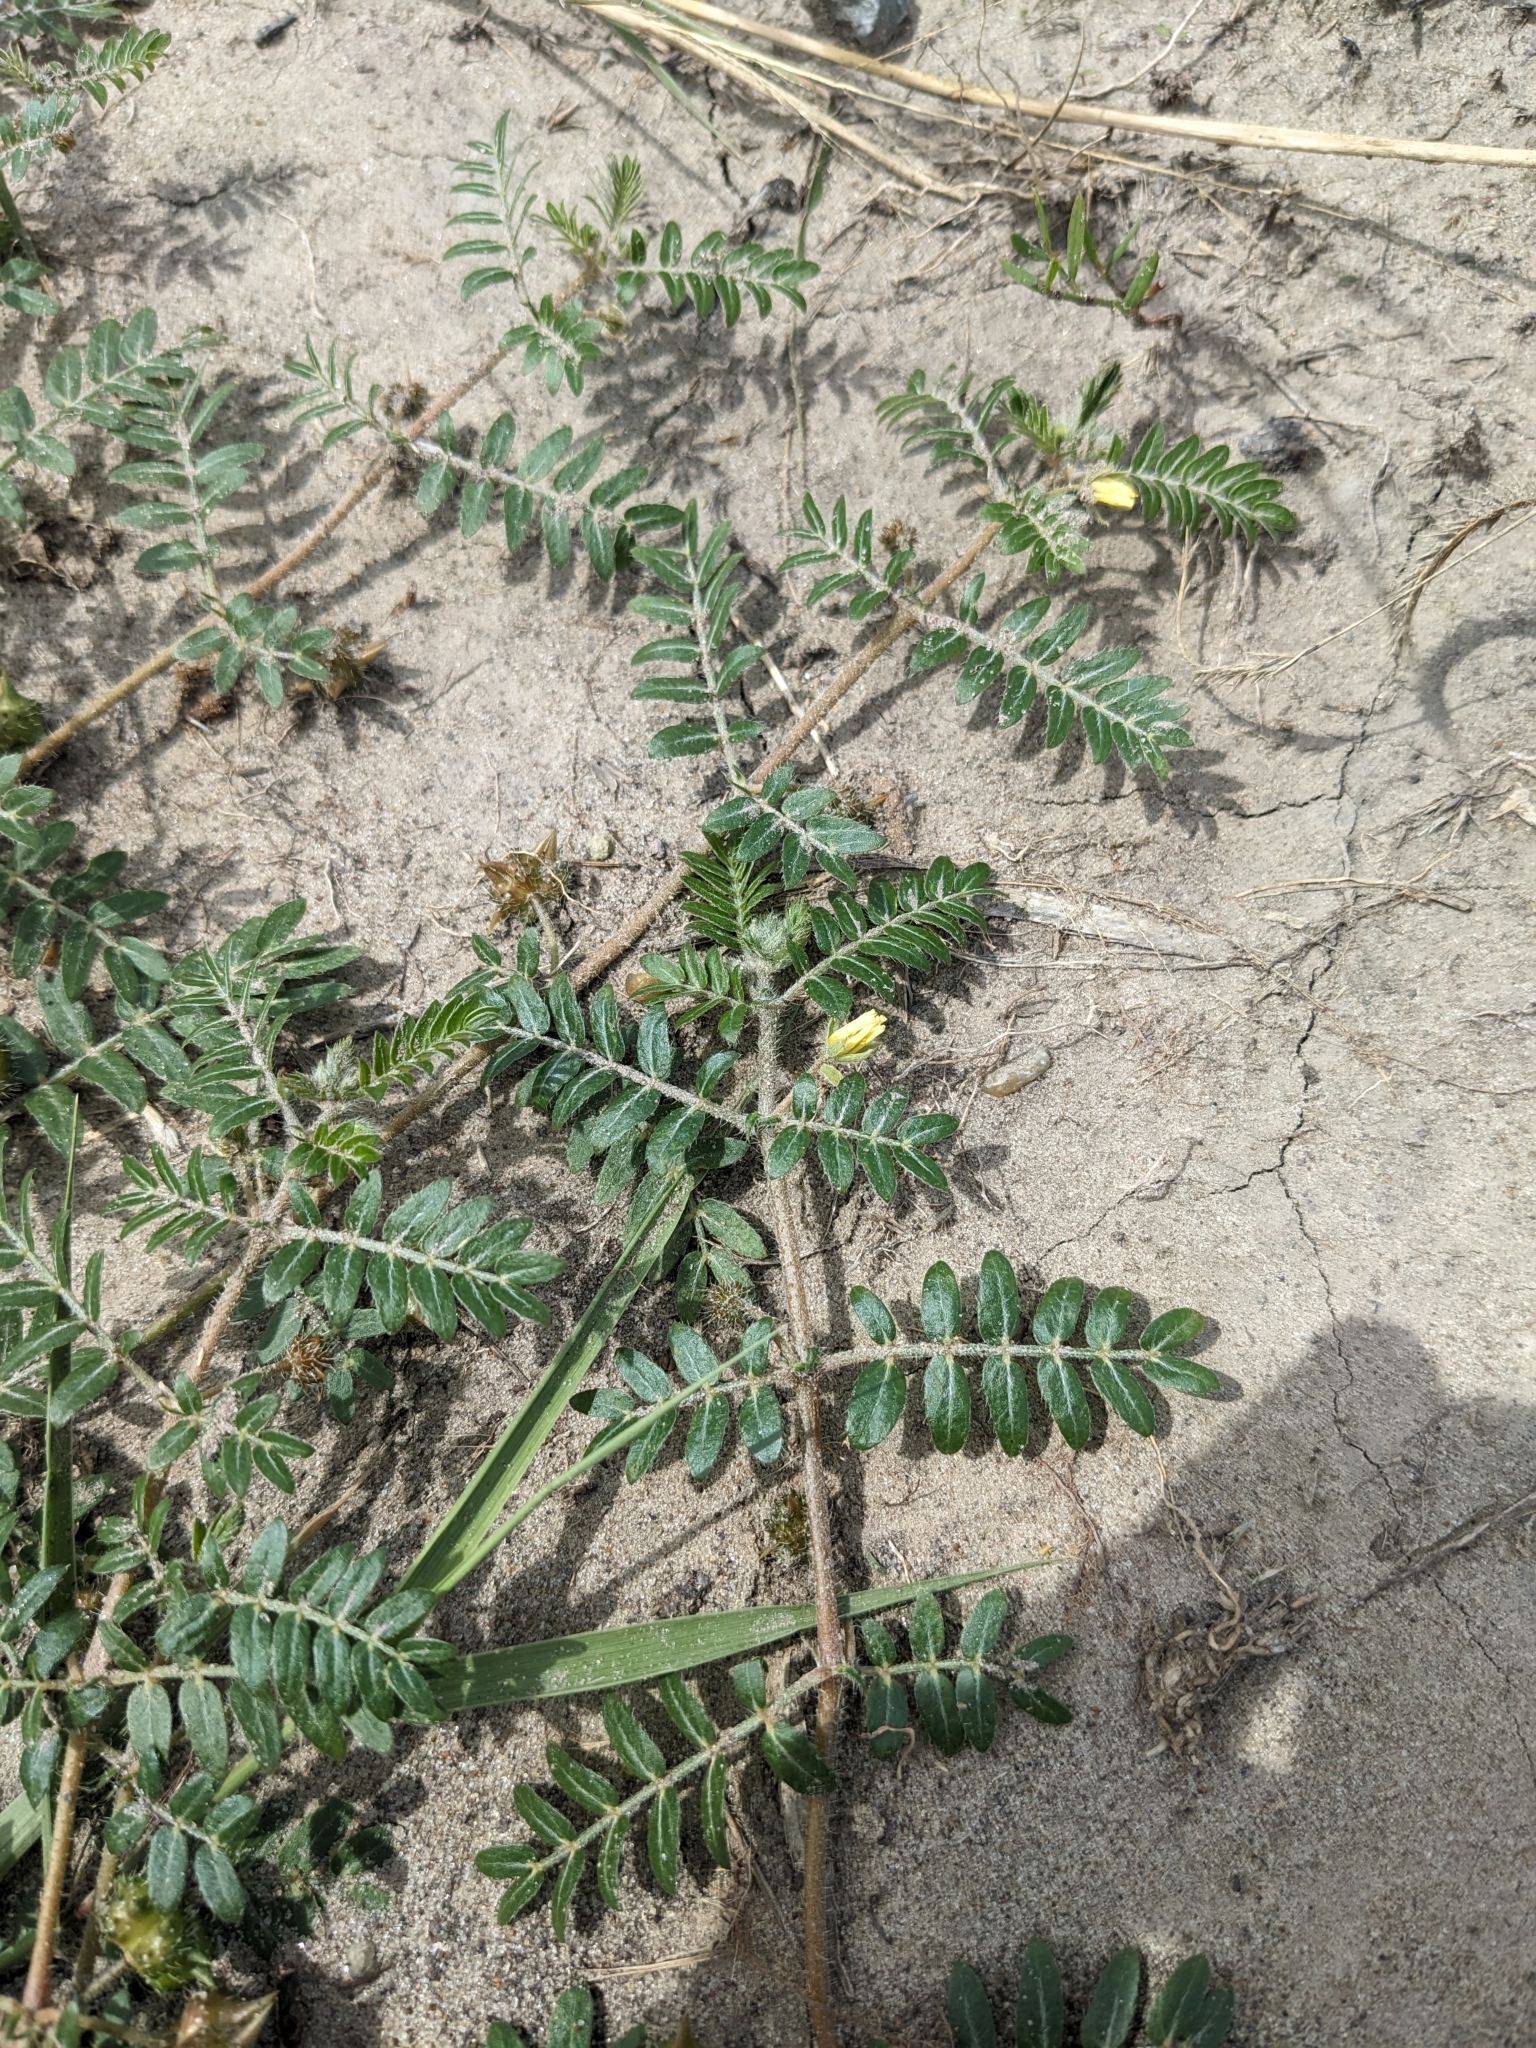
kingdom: Plantae
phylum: Tracheophyta
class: Magnoliopsida
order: Zygophyllales
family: Zygophyllaceae
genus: Tribulus
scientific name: Tribulus terrestris
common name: Puncturevine
